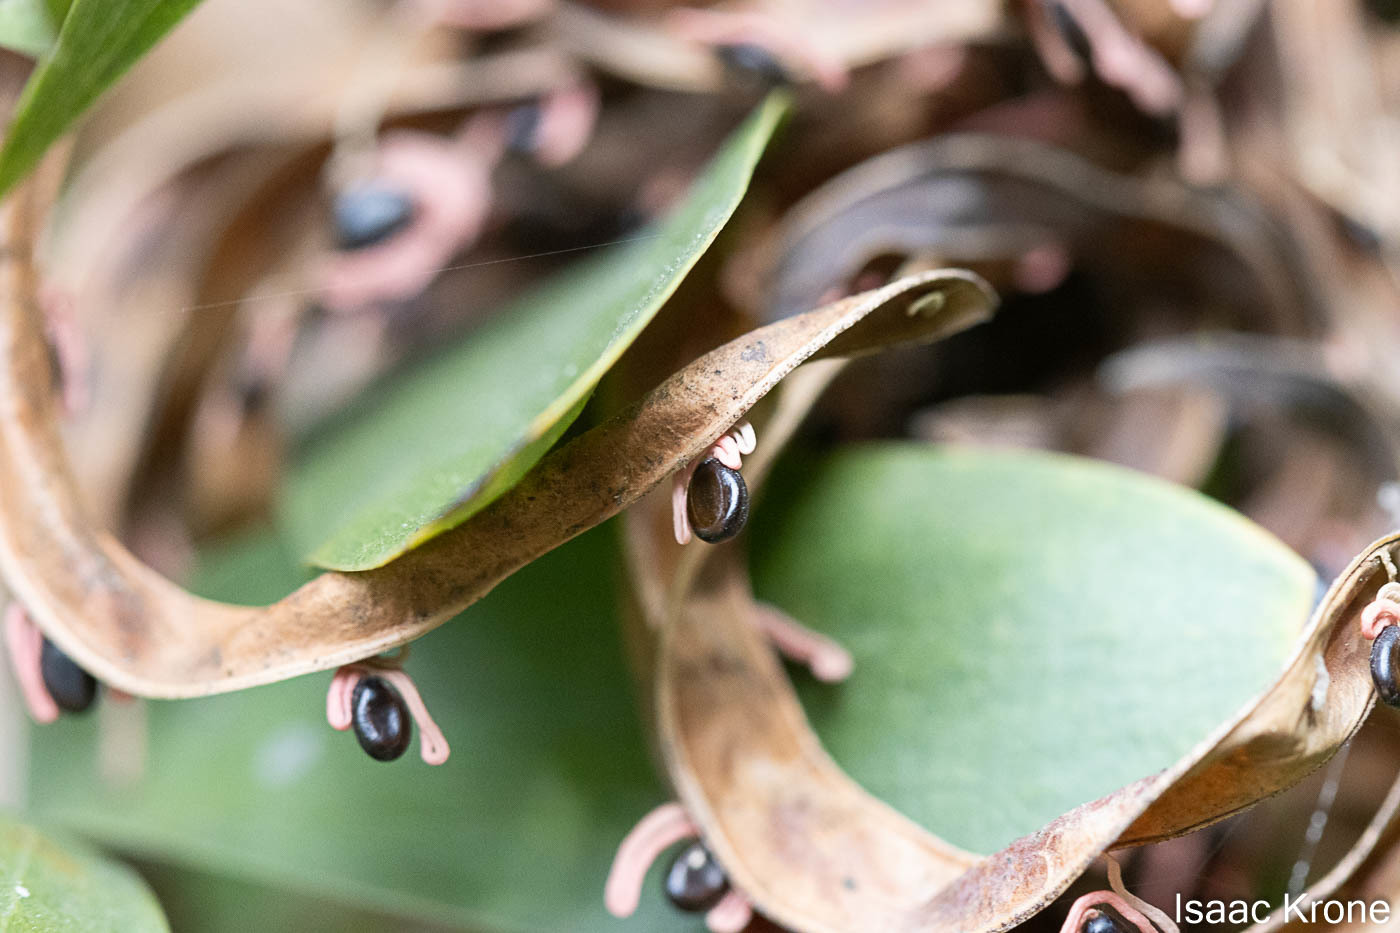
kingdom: Plantae
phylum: Tracheophyta
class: Magnoliopsida
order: Fabales
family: Fabaceae
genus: Acacia
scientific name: Acacia melanoxylon
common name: Blackwood
